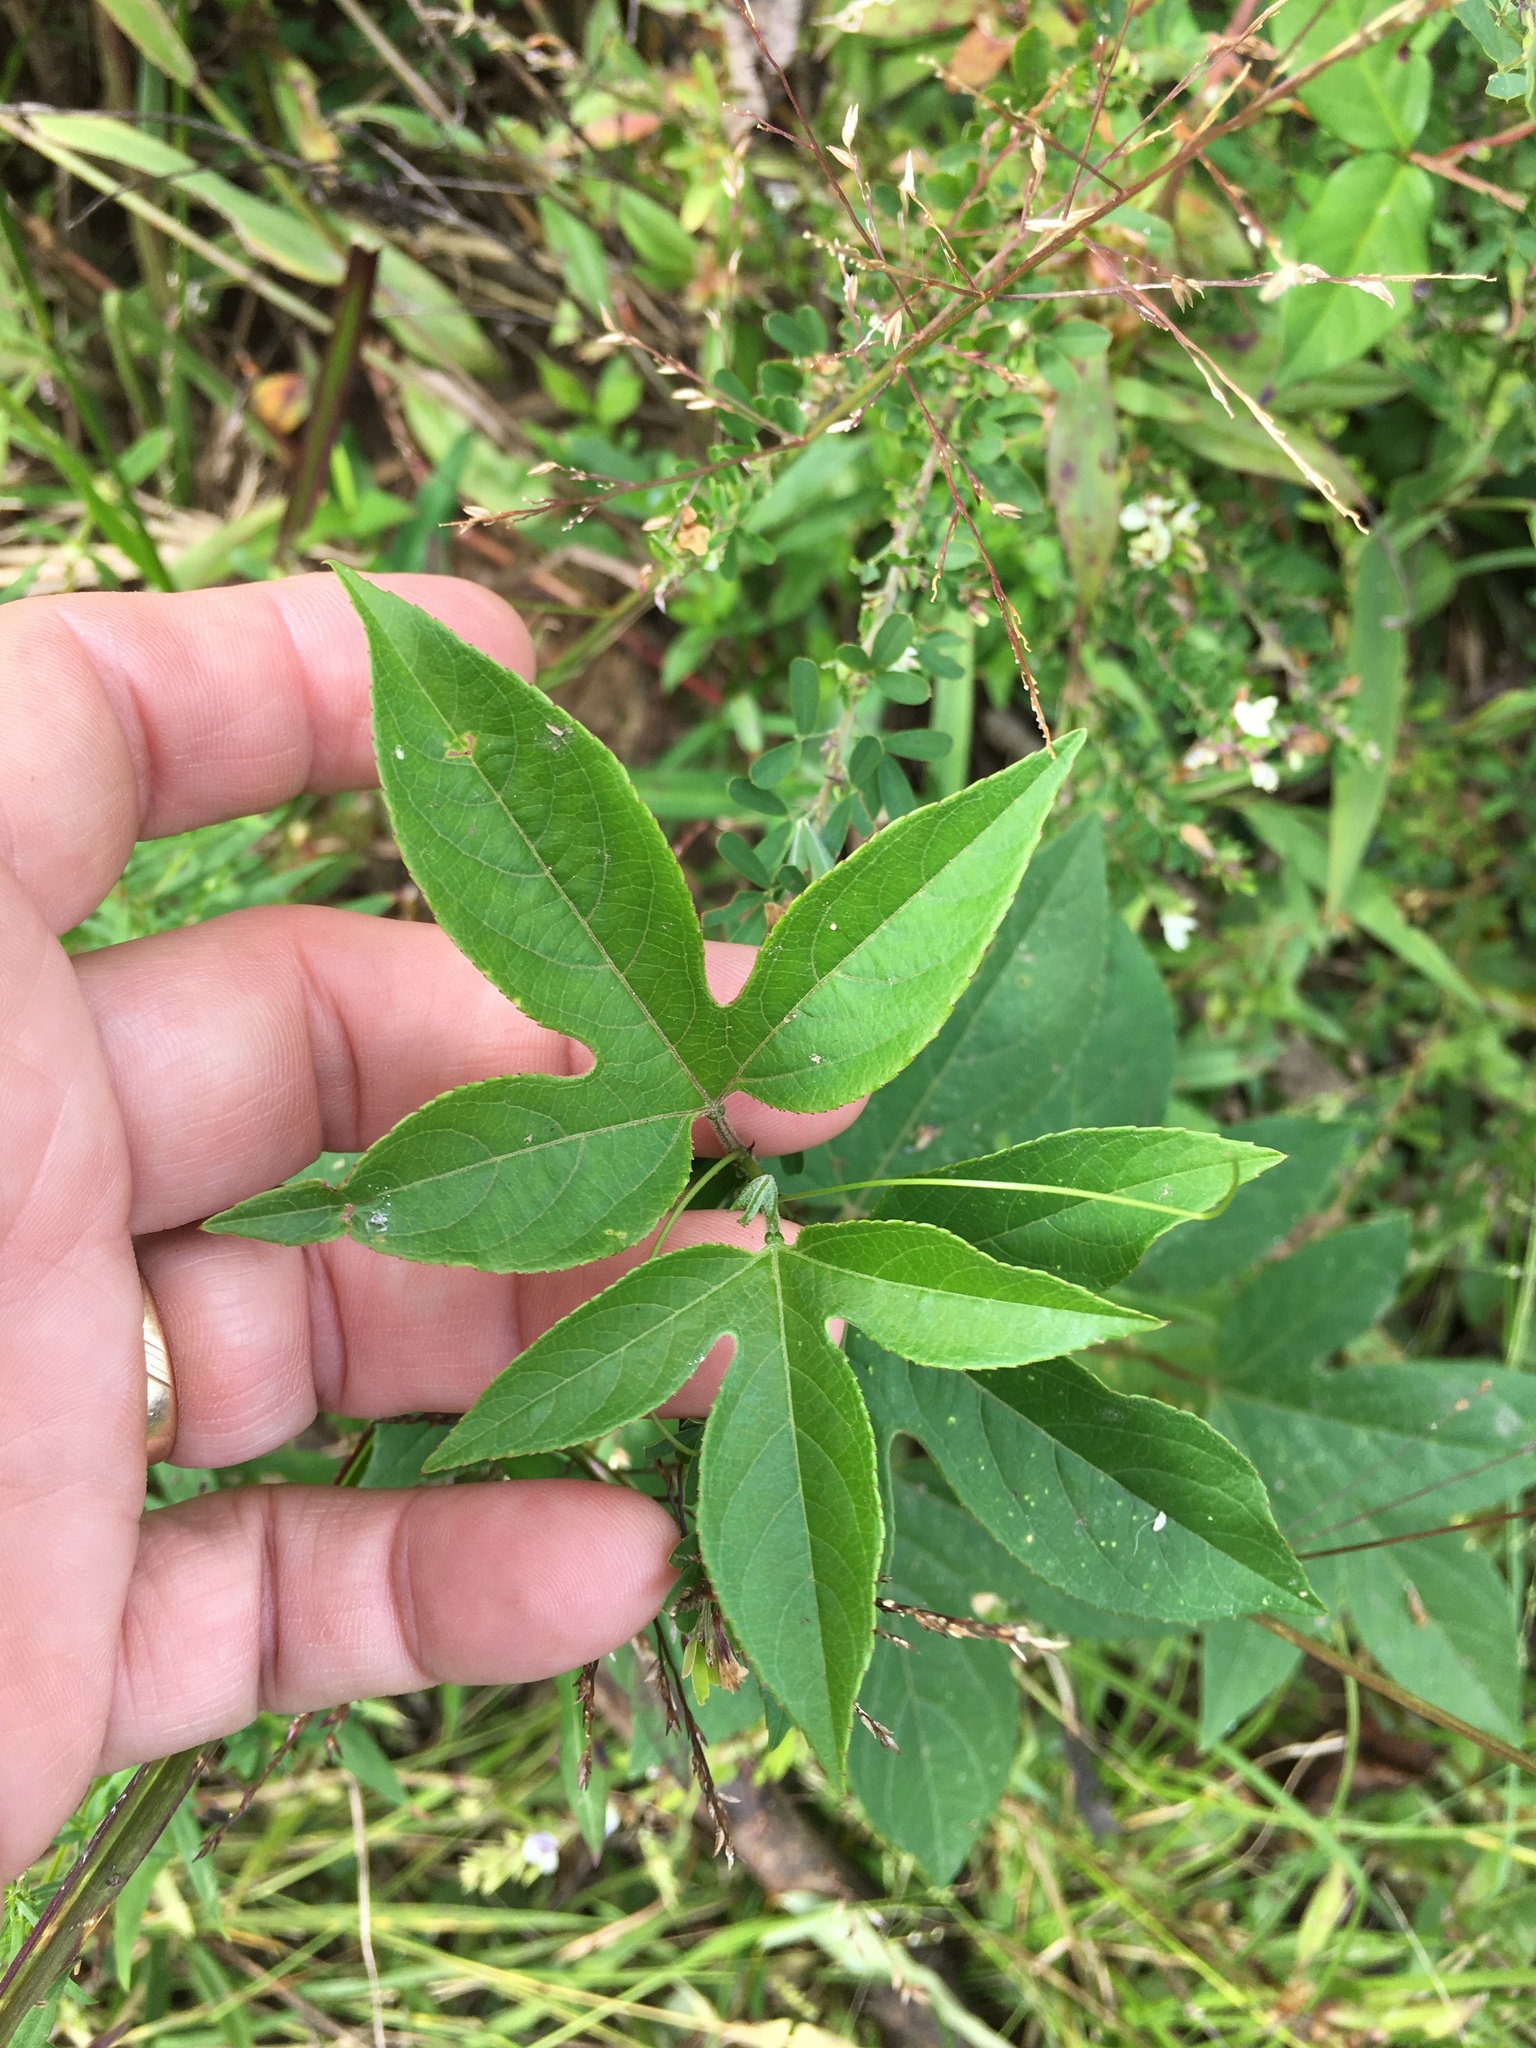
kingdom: Plantae
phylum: Tracheophyta
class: Magnoliopsida
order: Malpighiales
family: Passifloraceae
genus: Passiflora
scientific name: Passiflora incarnata
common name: Apricot-vine
